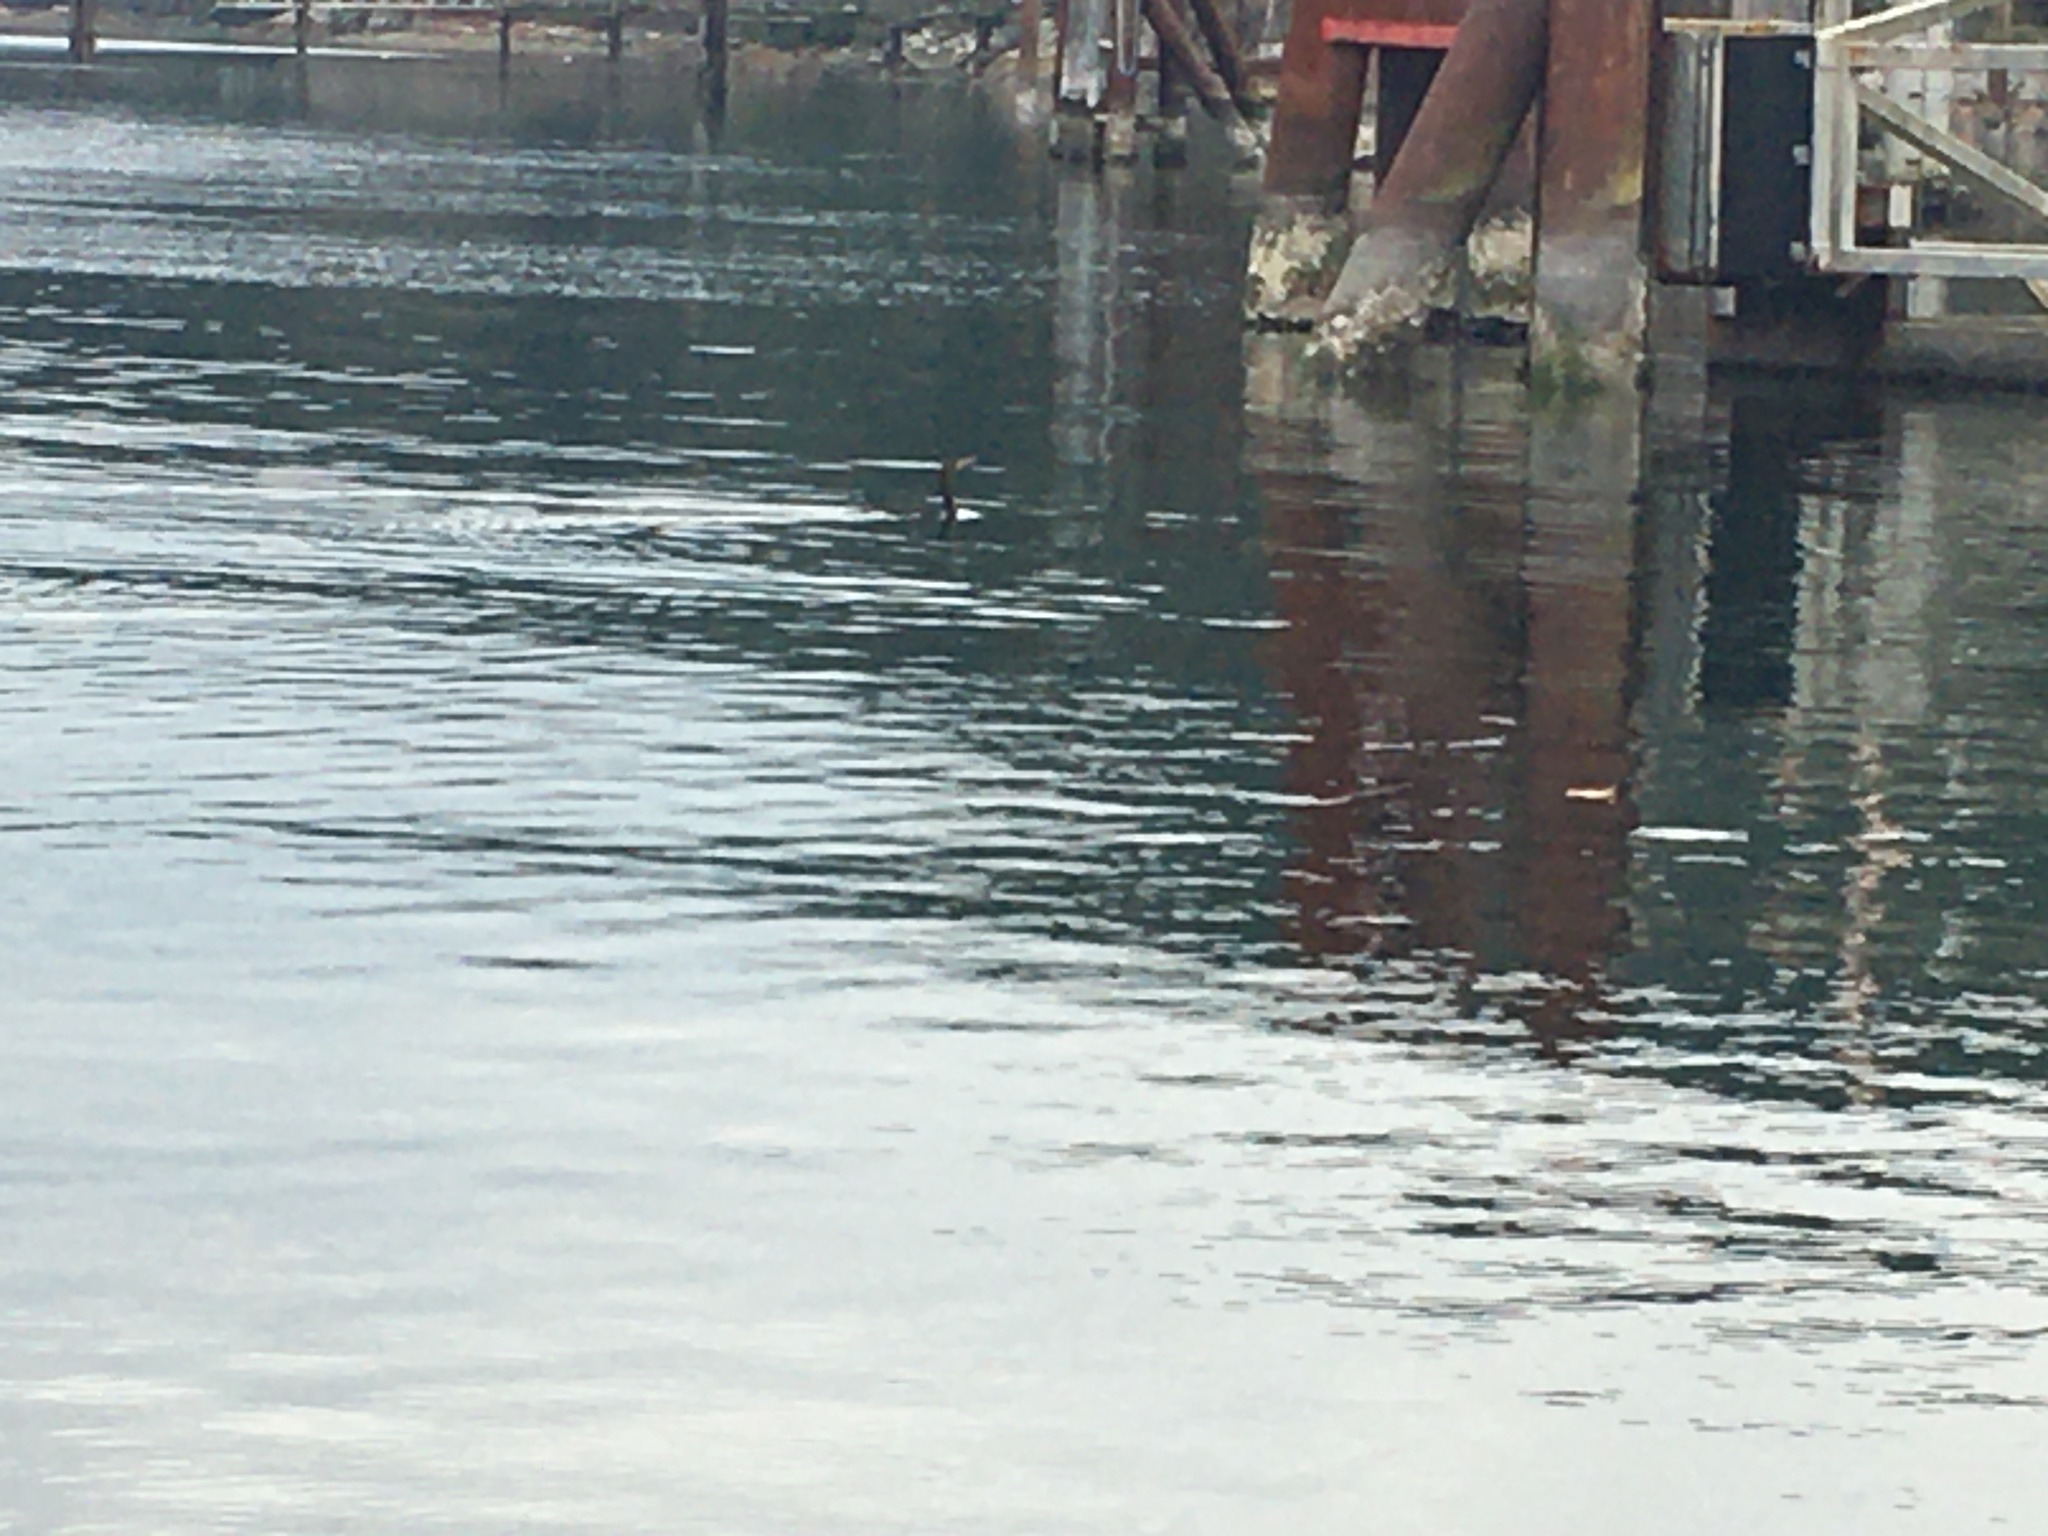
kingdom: Animalia
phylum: Chordata
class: Aves
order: Suliformes
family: Phalacrocoracidae
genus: Phalacrocorax
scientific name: Phalacrocorax auritus
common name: Double-crested cormorant
